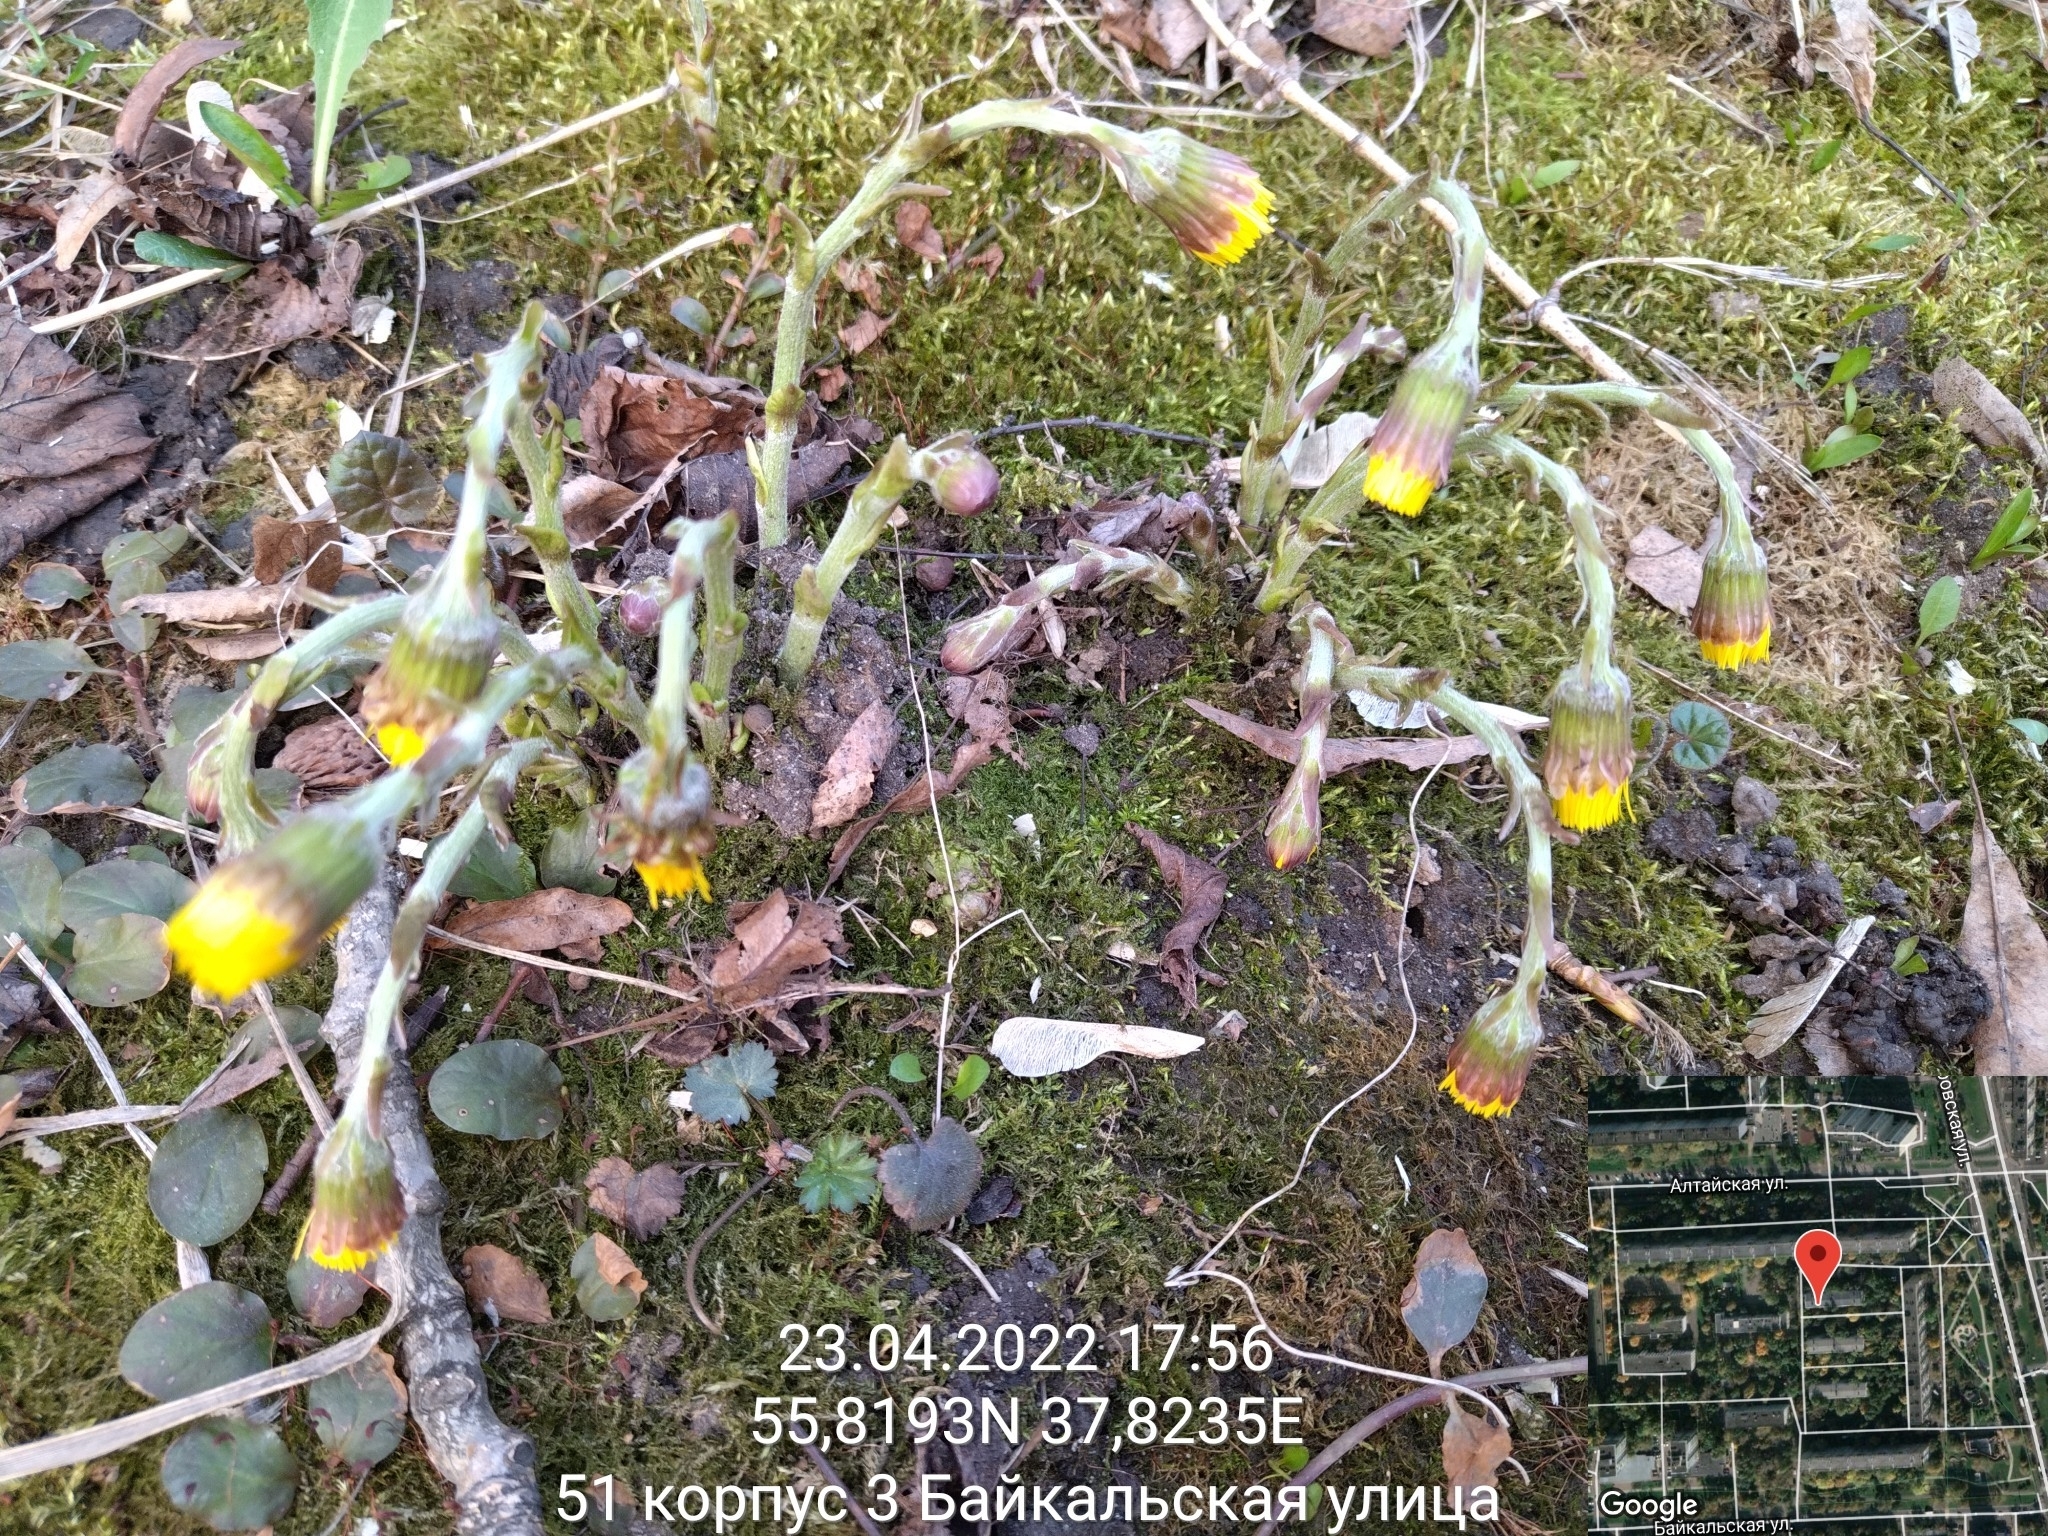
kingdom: Plantae
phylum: Tracheophyta
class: Magnoliopsida
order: Asterales
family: Asteraceae
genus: Tussilago
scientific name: Tussilago farfara
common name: Coltsfoot
